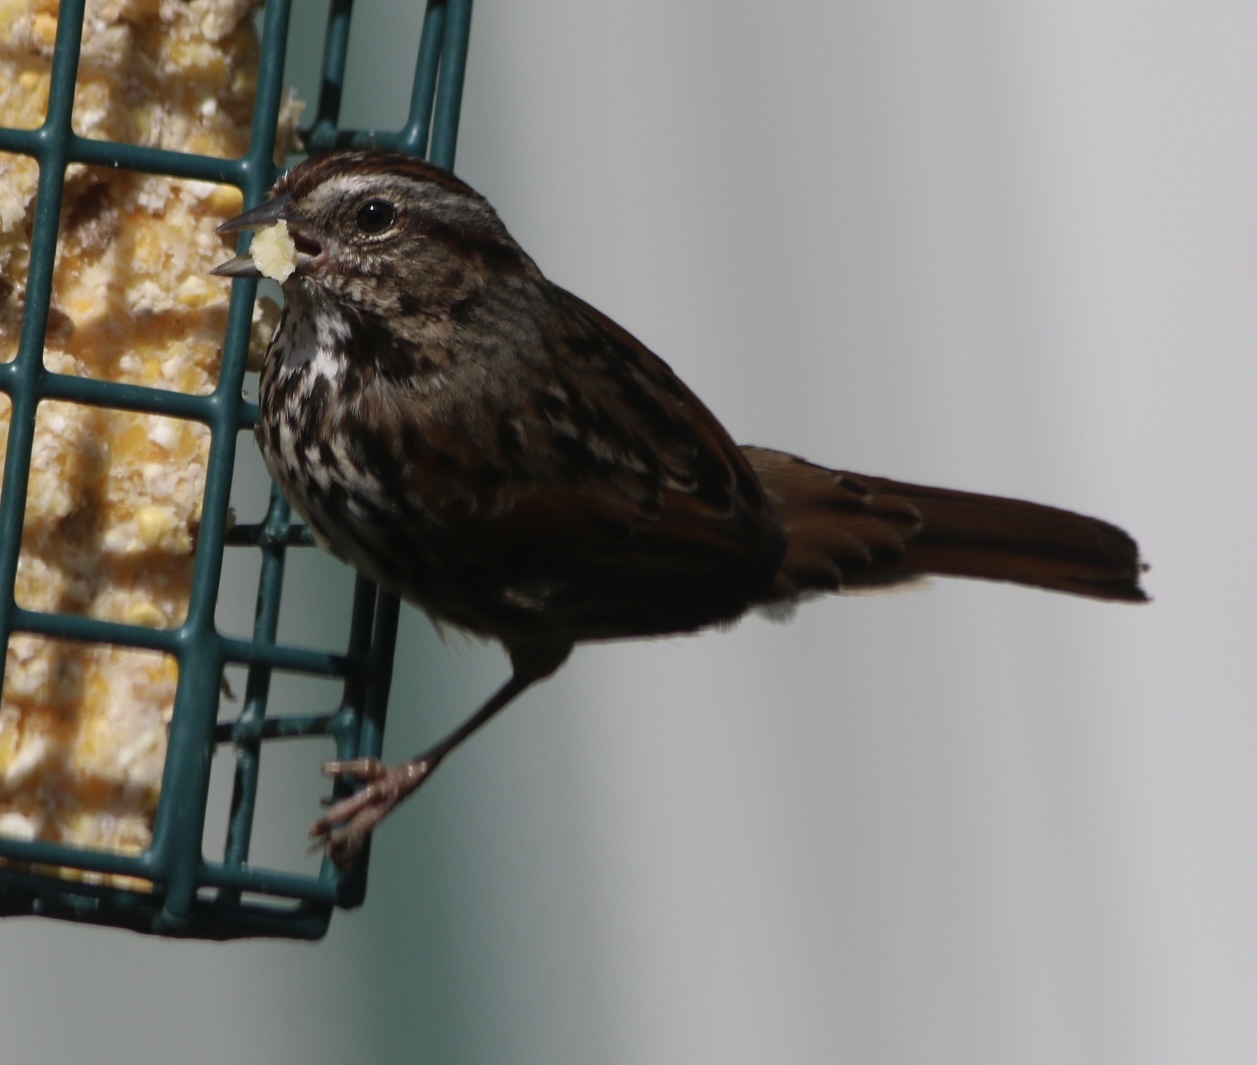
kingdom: Animalia
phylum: Chordata
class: Aves
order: Passeriformes
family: Passerellidae
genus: Melospiza
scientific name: Melospiza melodia
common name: Song sparrow
